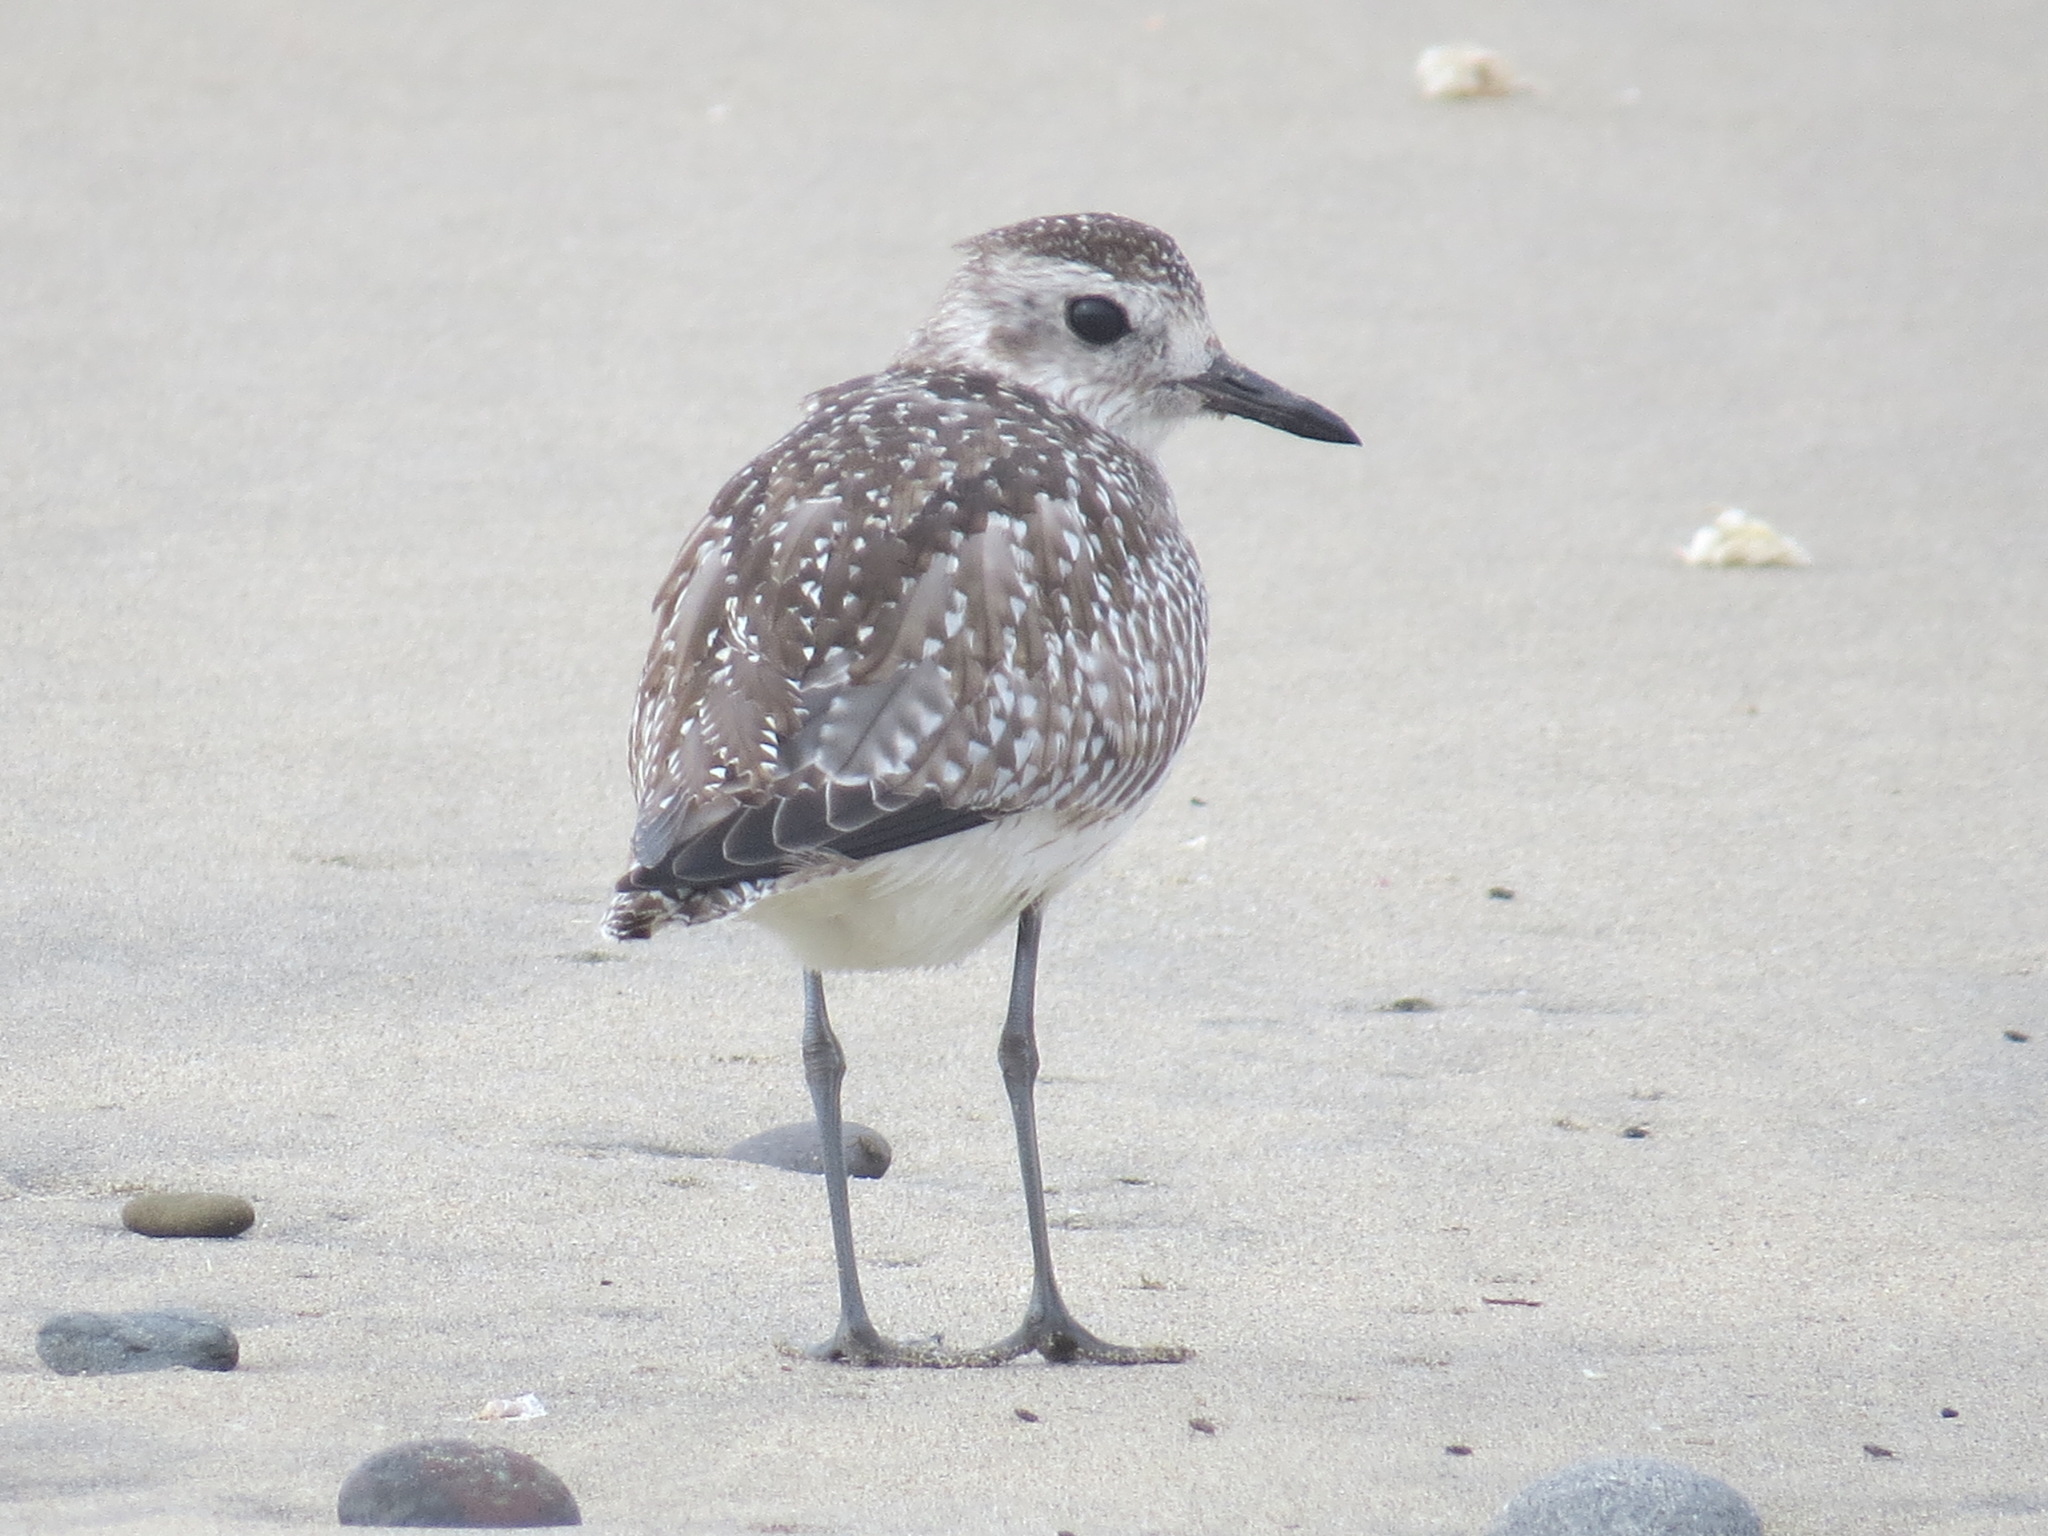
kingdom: Animalia
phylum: Chordata
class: Aves
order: Charadriiformes
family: Charadriidae
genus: Pluvialis
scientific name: Pluvialis squatarola
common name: Grey plover
